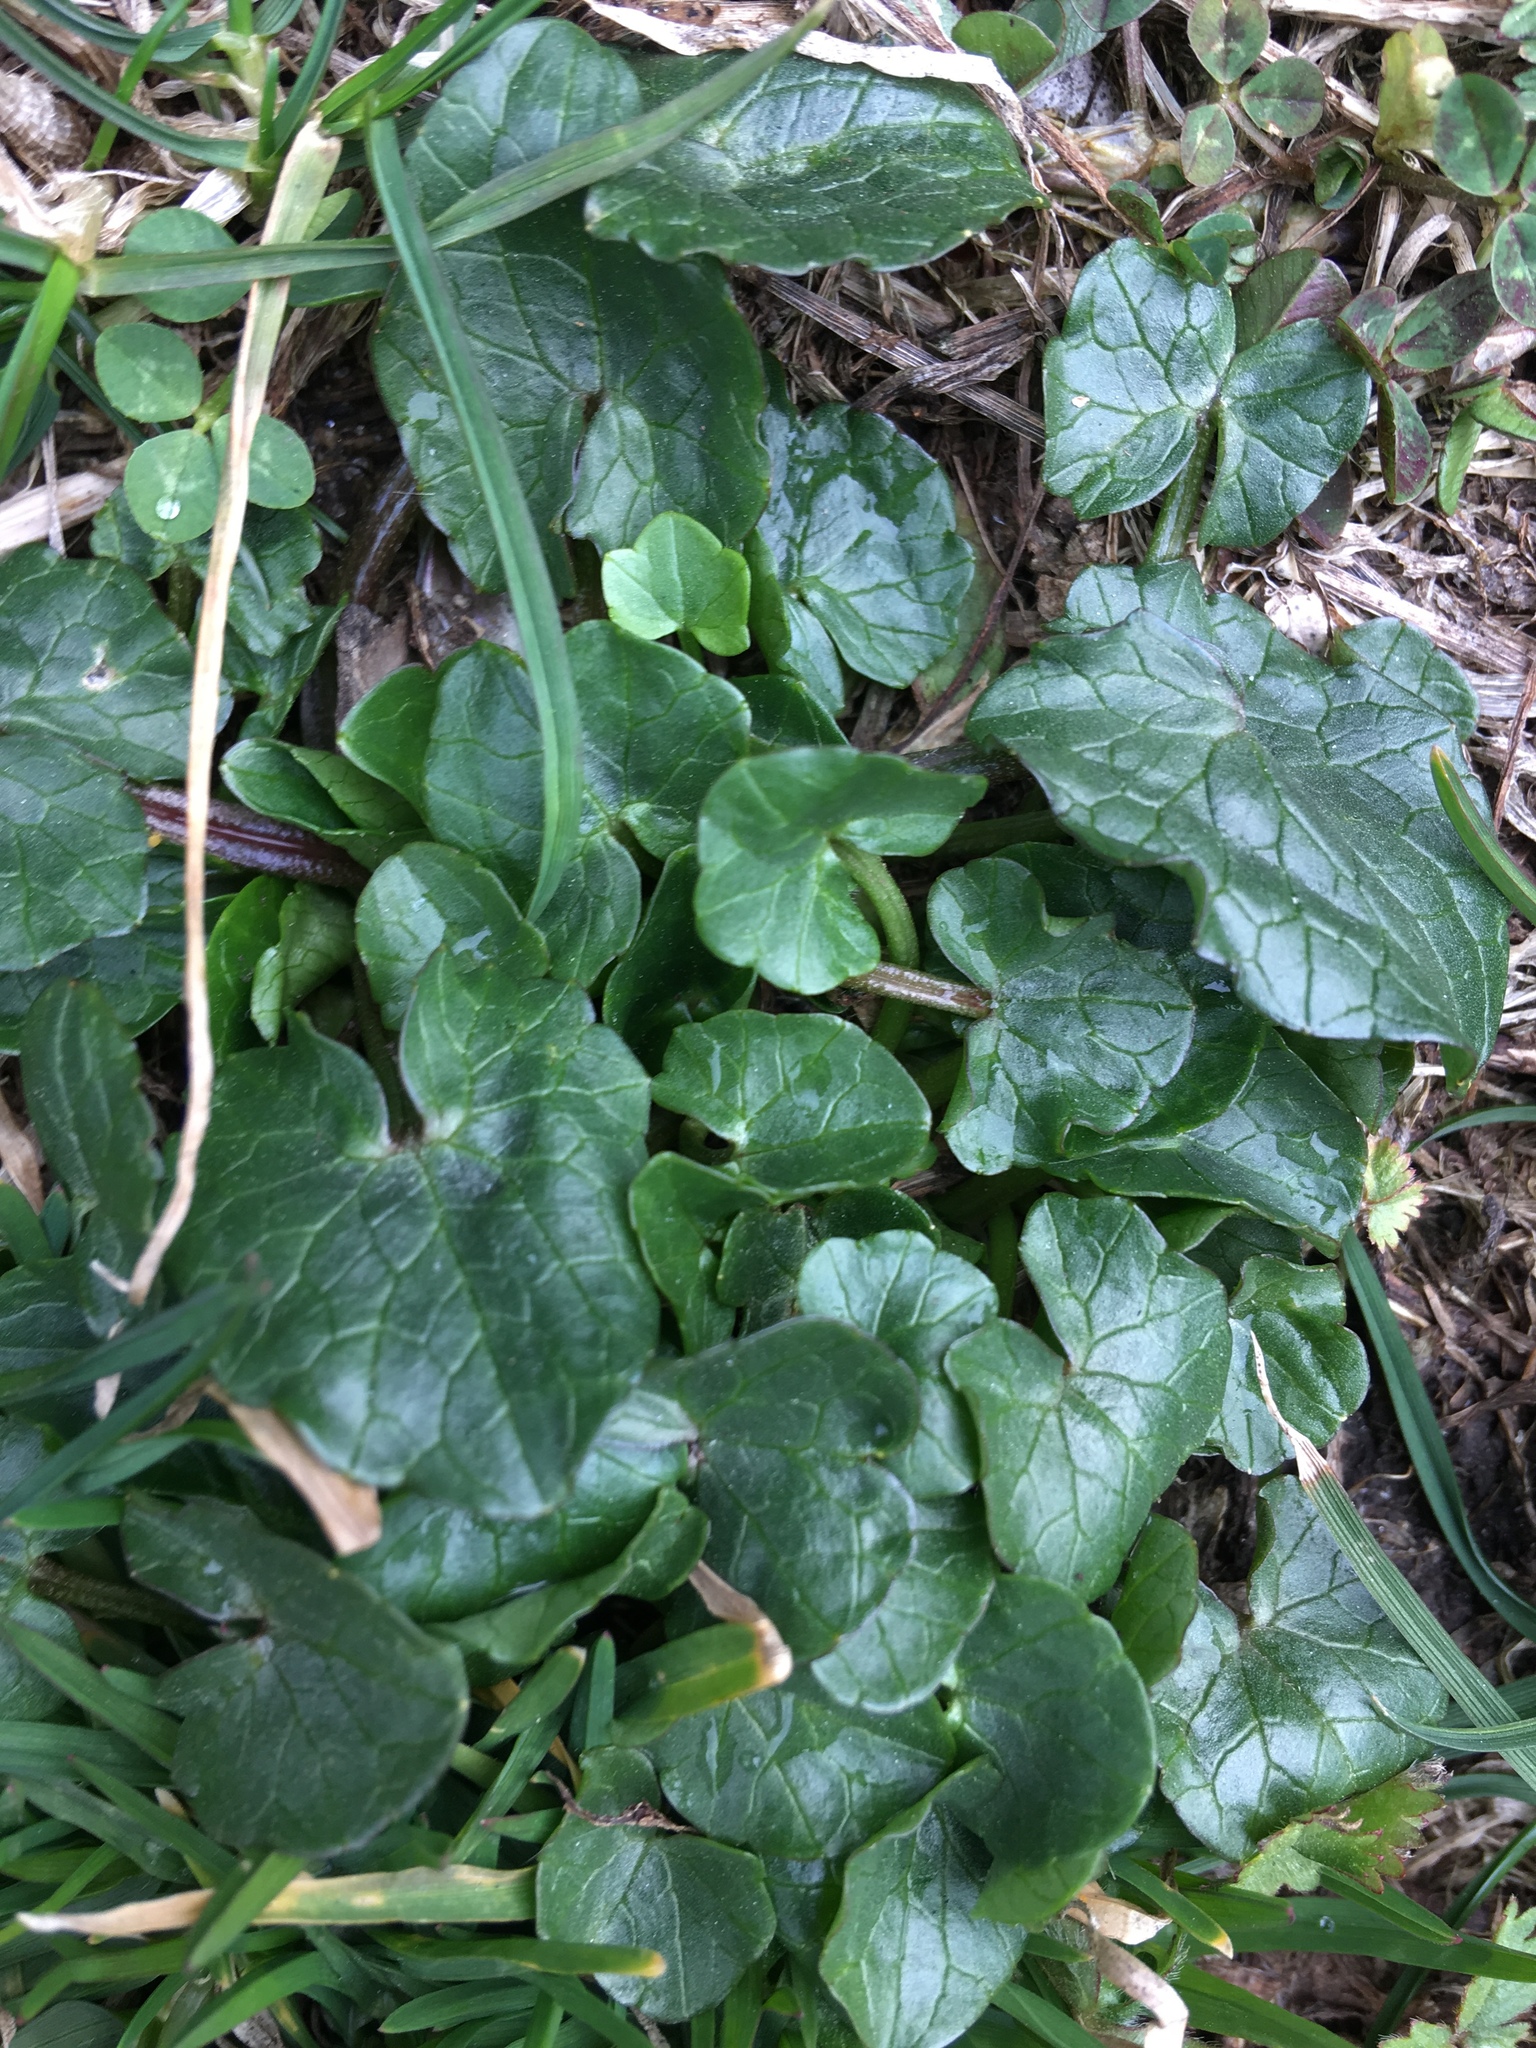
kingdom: Plantae
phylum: Tracheophyta
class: Magnoliopsida
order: Ranunculales
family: Ranunculaceae
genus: Ficaria
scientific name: Ficaria verna
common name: Lesser celandine
